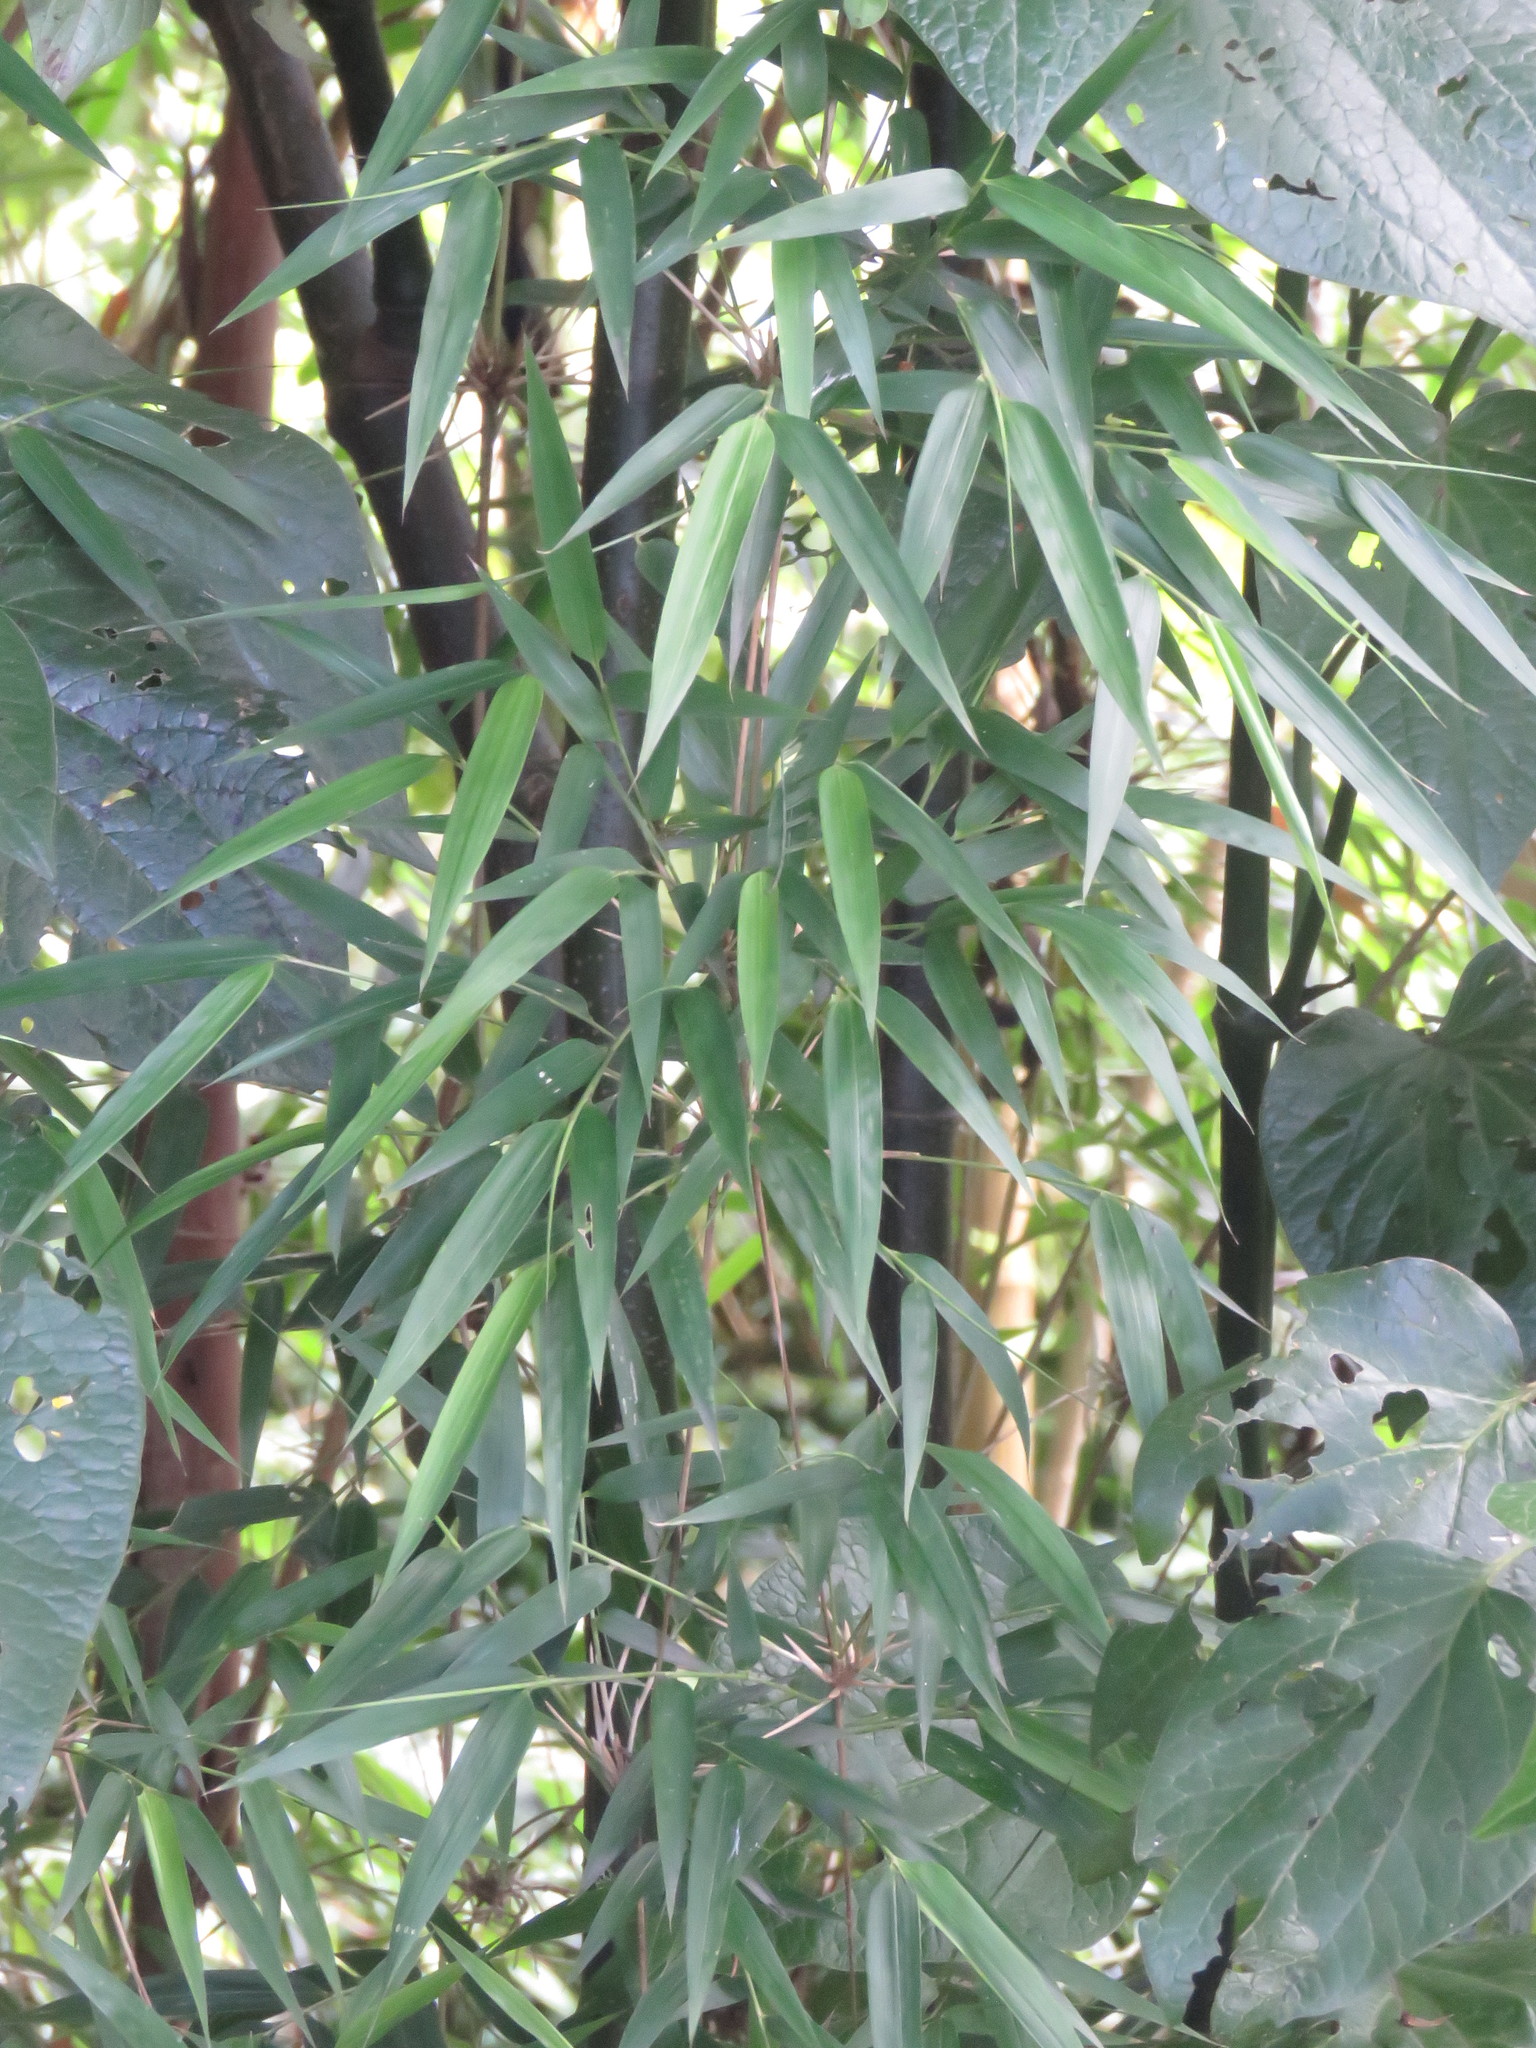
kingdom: Plantae
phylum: Tracheophyta
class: Liliopsida
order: Poales
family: Poaceae
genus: Chusquea
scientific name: Chusquea scandens
